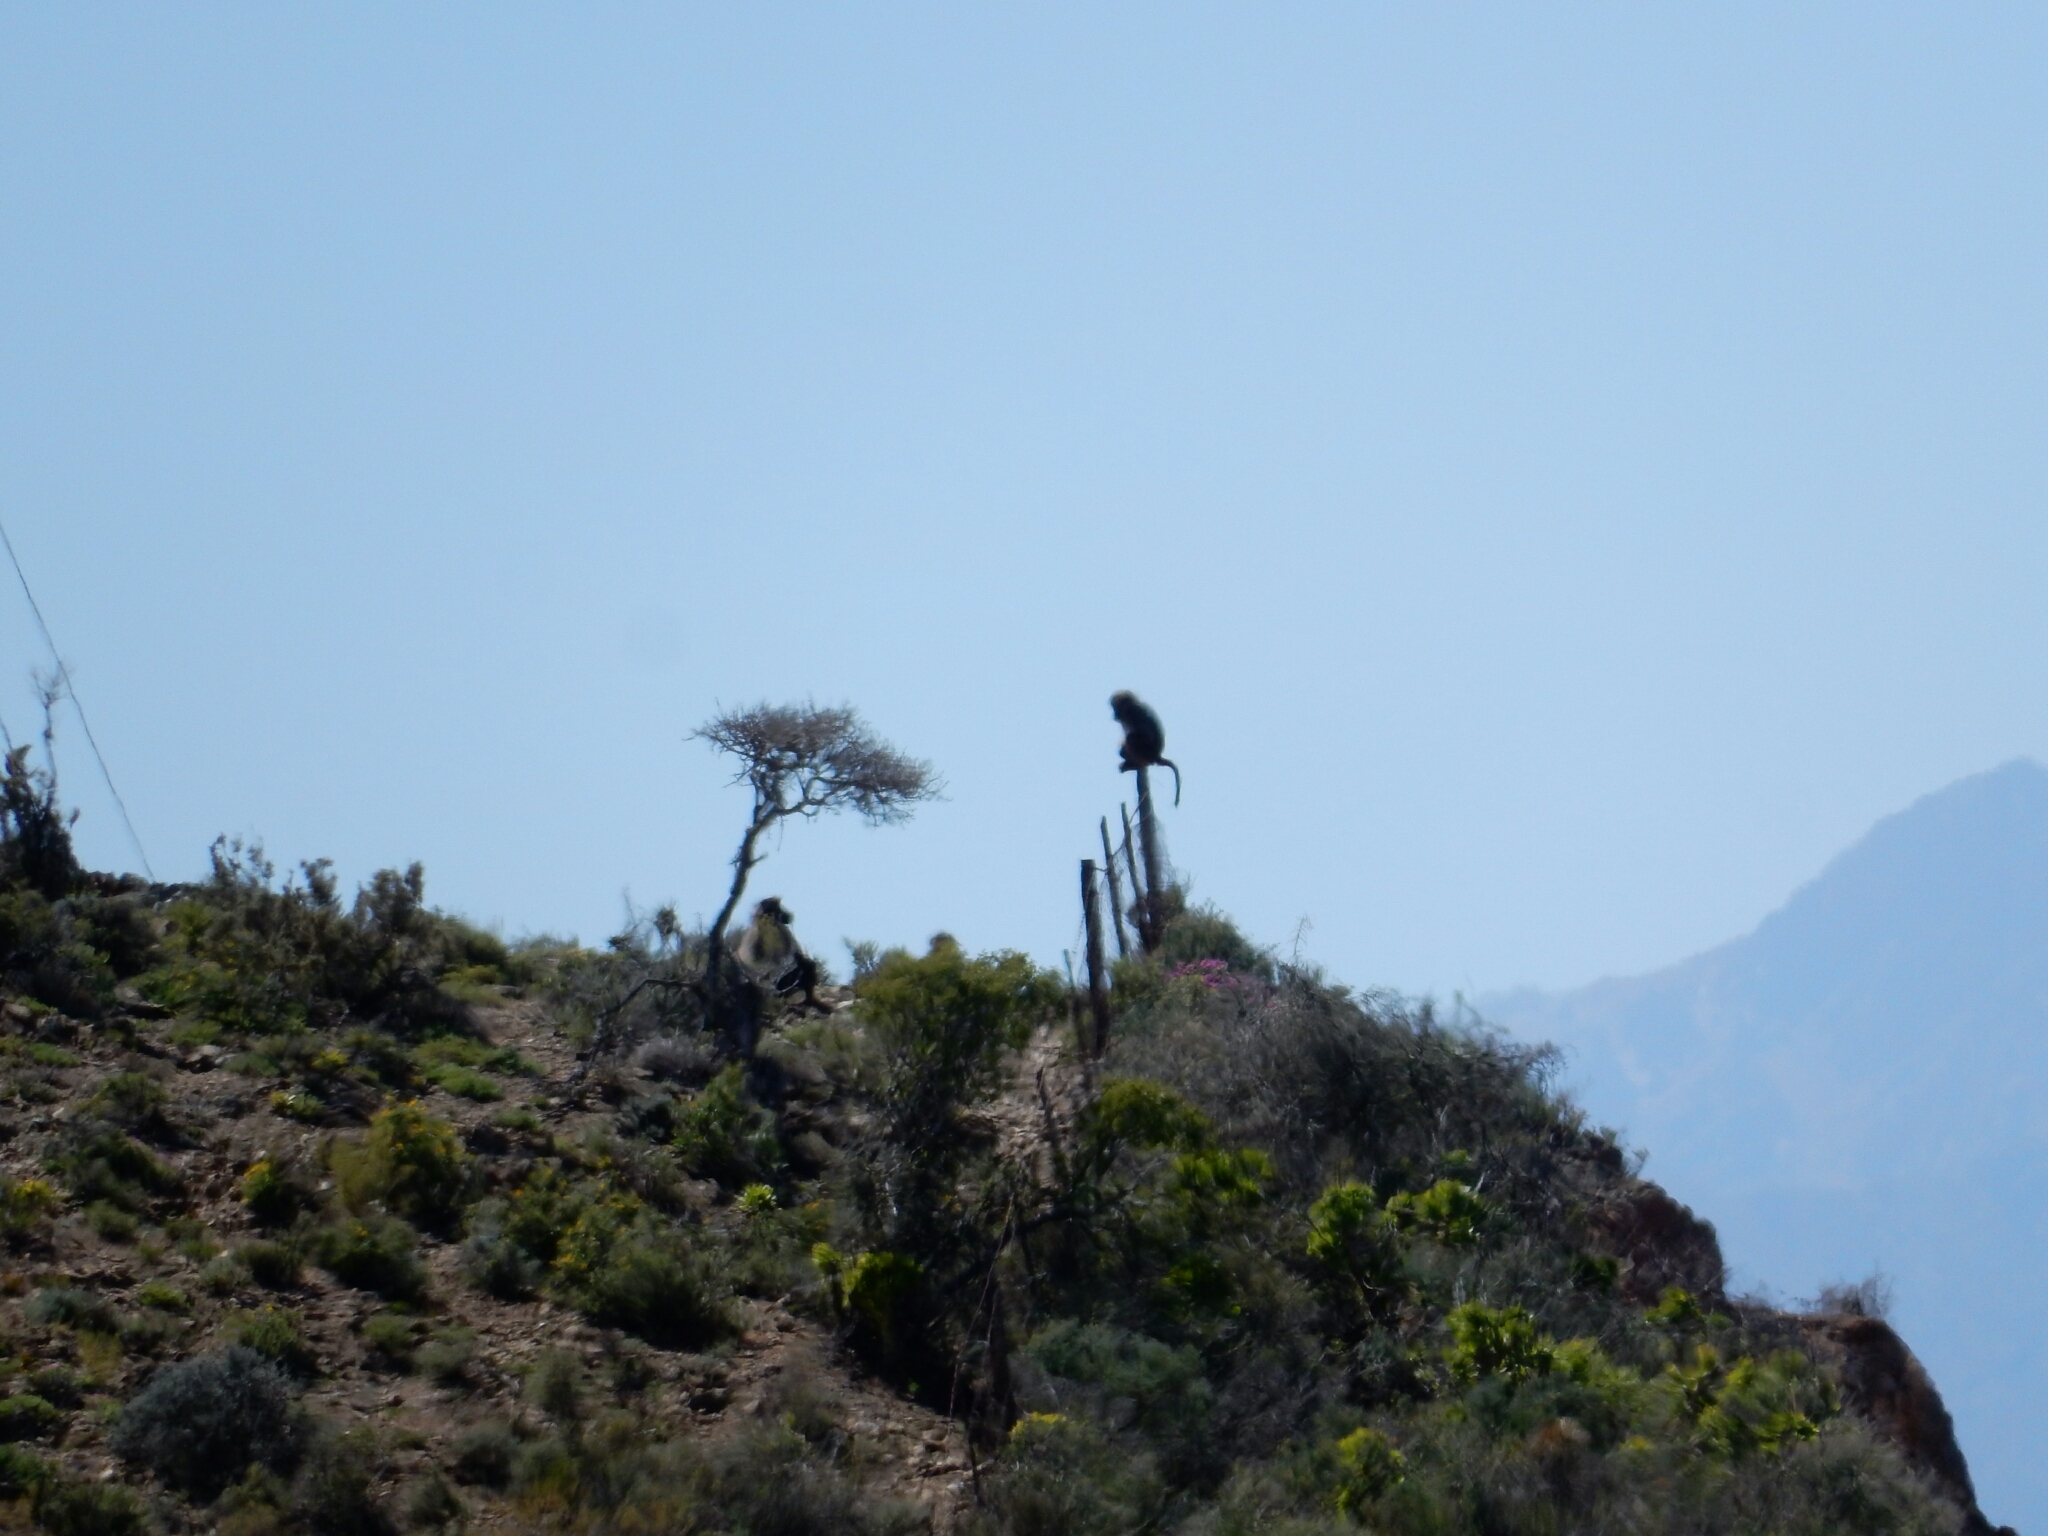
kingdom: Animalia
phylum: Chordata
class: Mammalia
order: Primates
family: Cercopithecidae
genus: Papio
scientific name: Papio ursinus
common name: Chacma baboon
